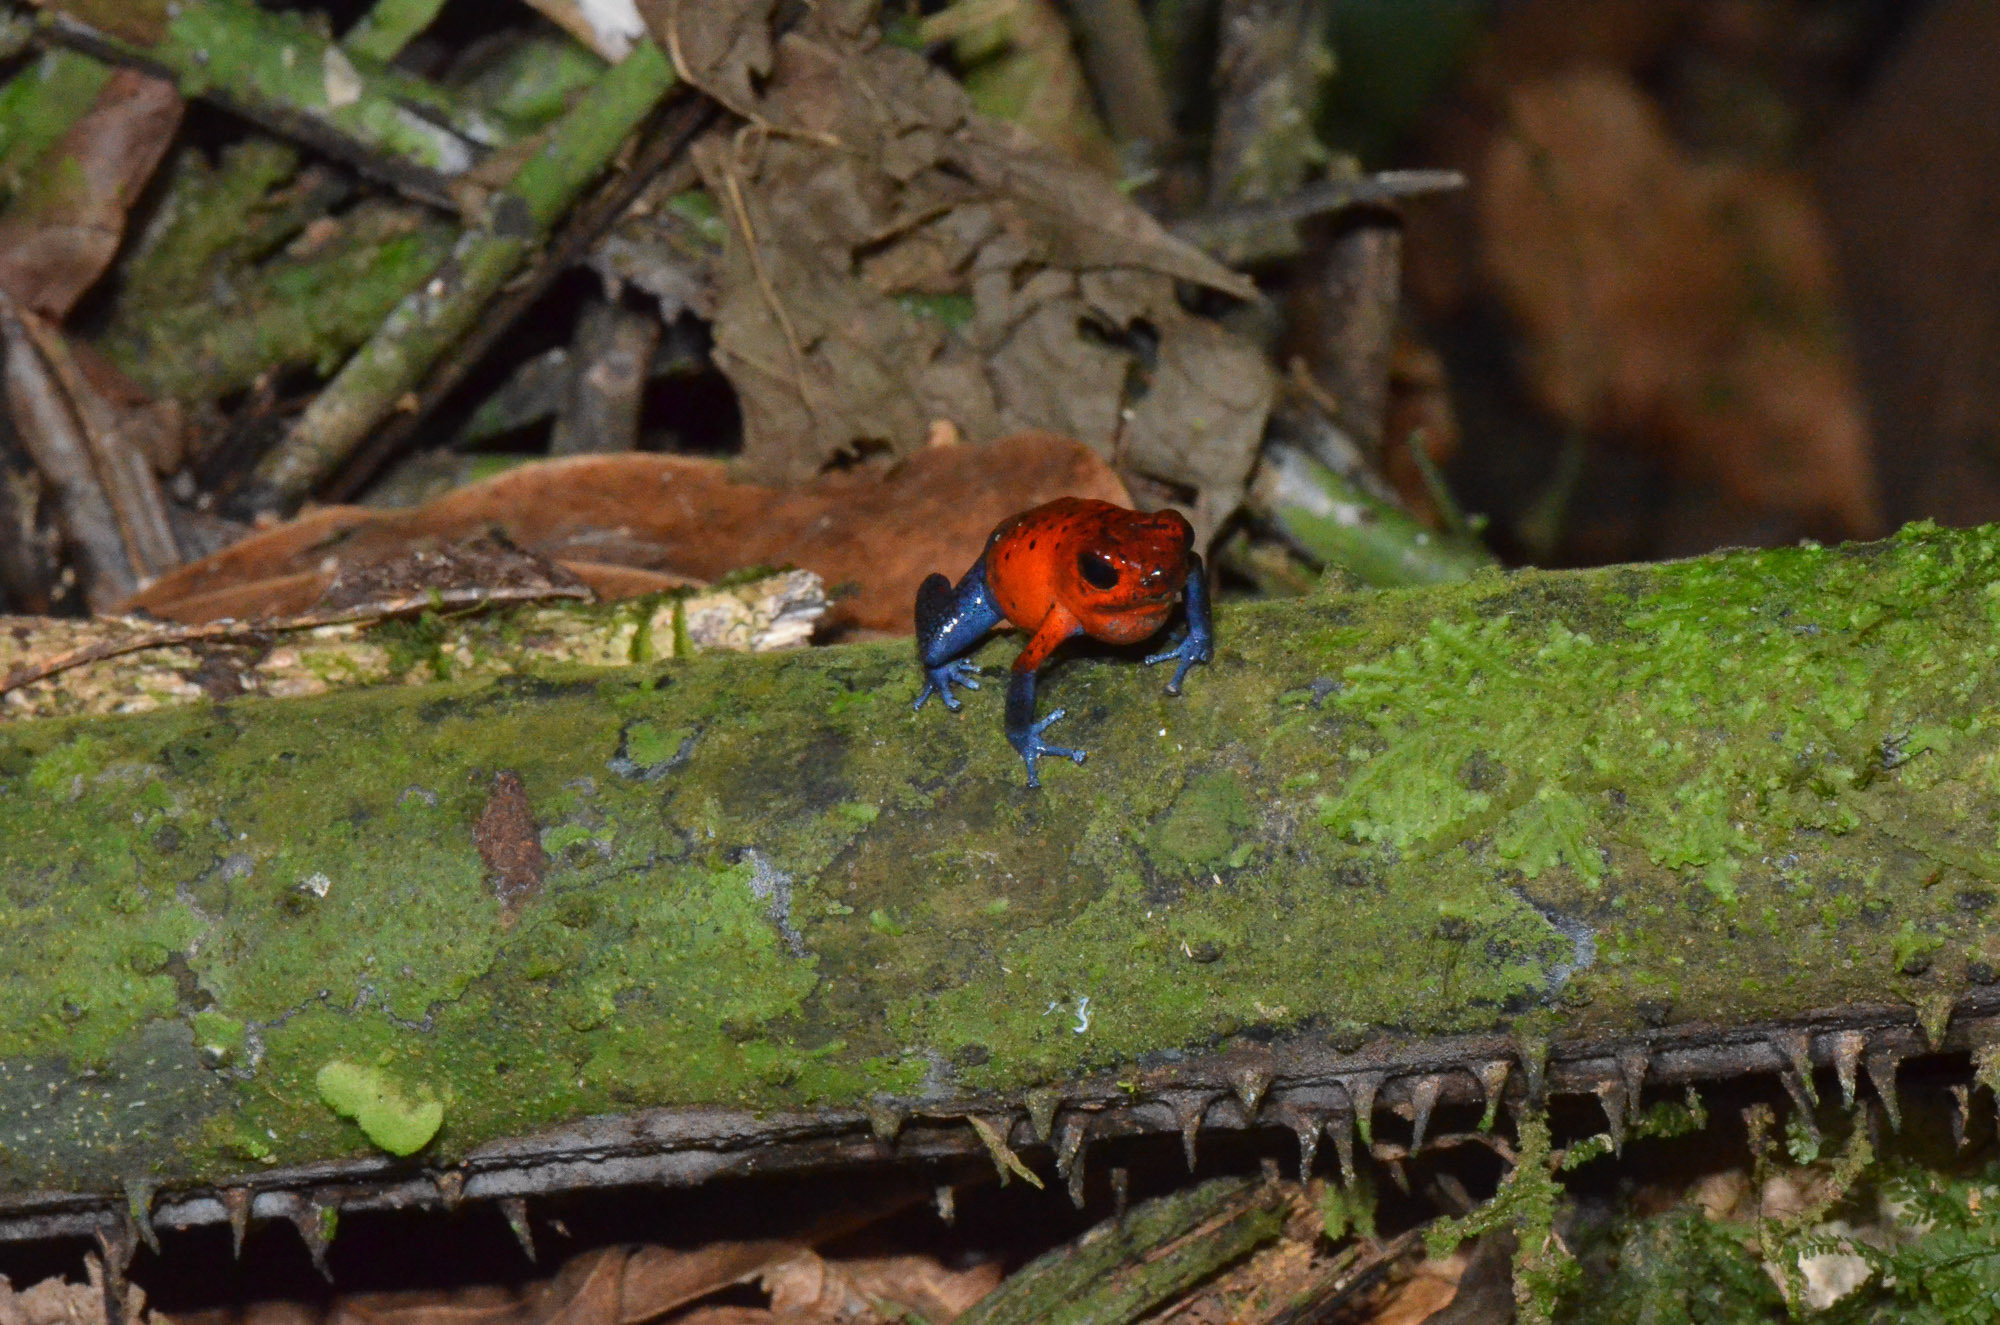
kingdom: Animalia
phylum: Chordata
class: Amphibia
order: Anura
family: Dendrobatidae
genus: Oophaga
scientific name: Oophaga pumilio
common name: Flaming poison frog
